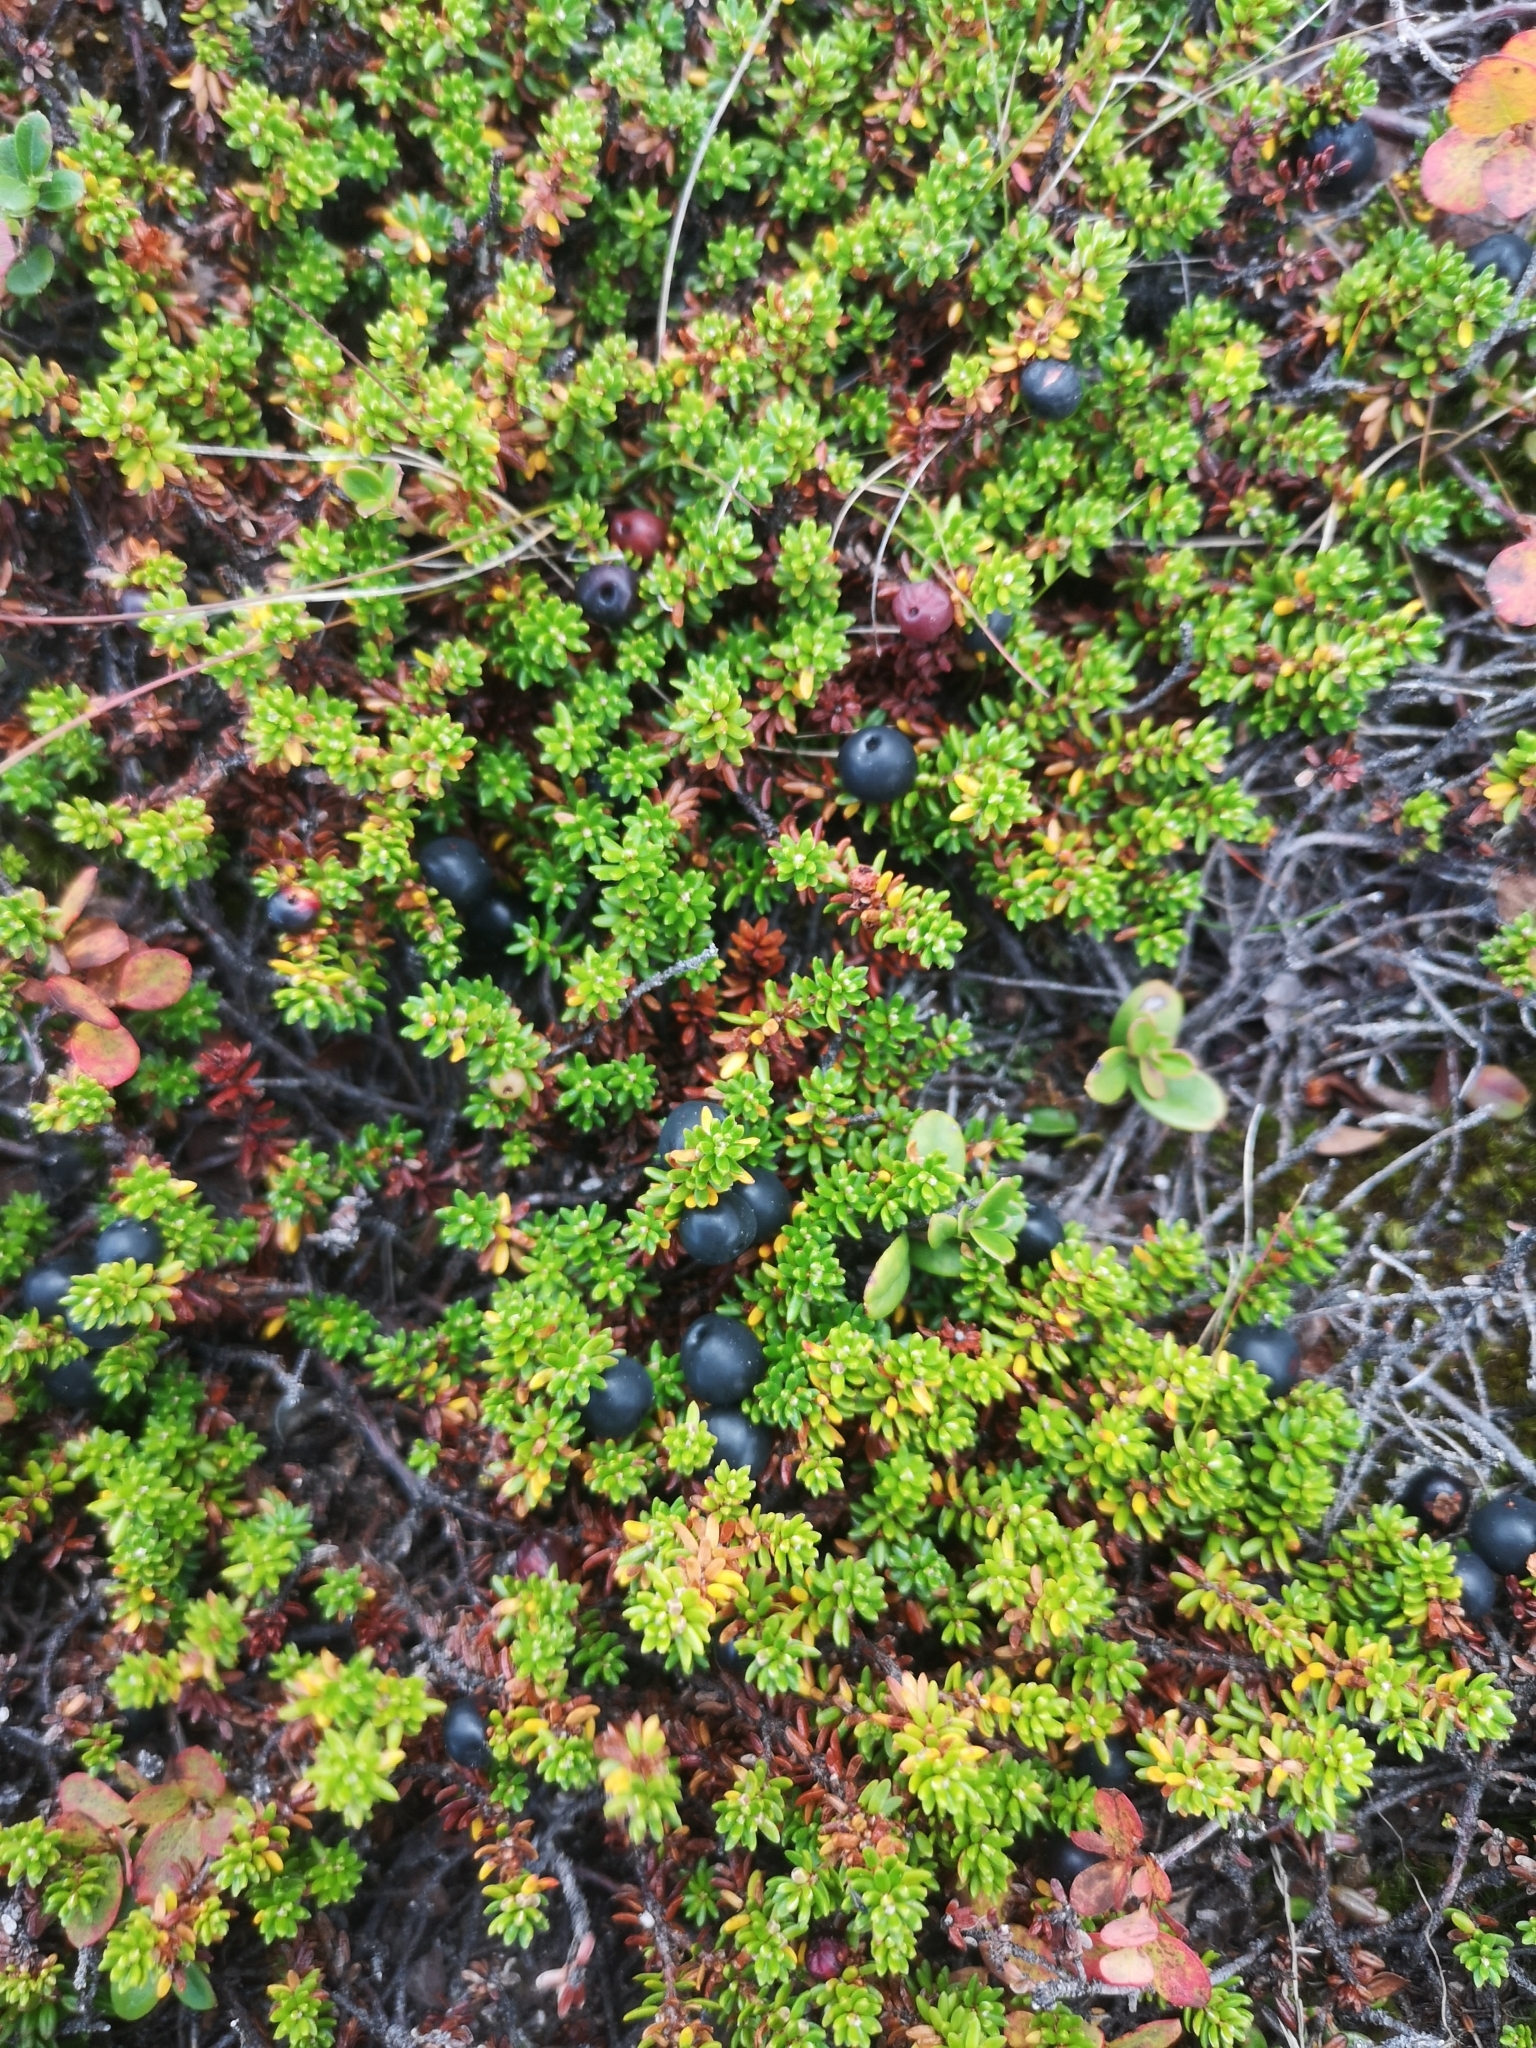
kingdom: Plantae
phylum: Tracheophyta
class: Magnoliopsida
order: Ericales
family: Ericaceae
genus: Empetrum
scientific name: Empetrum nigrum
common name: Black crowberry
